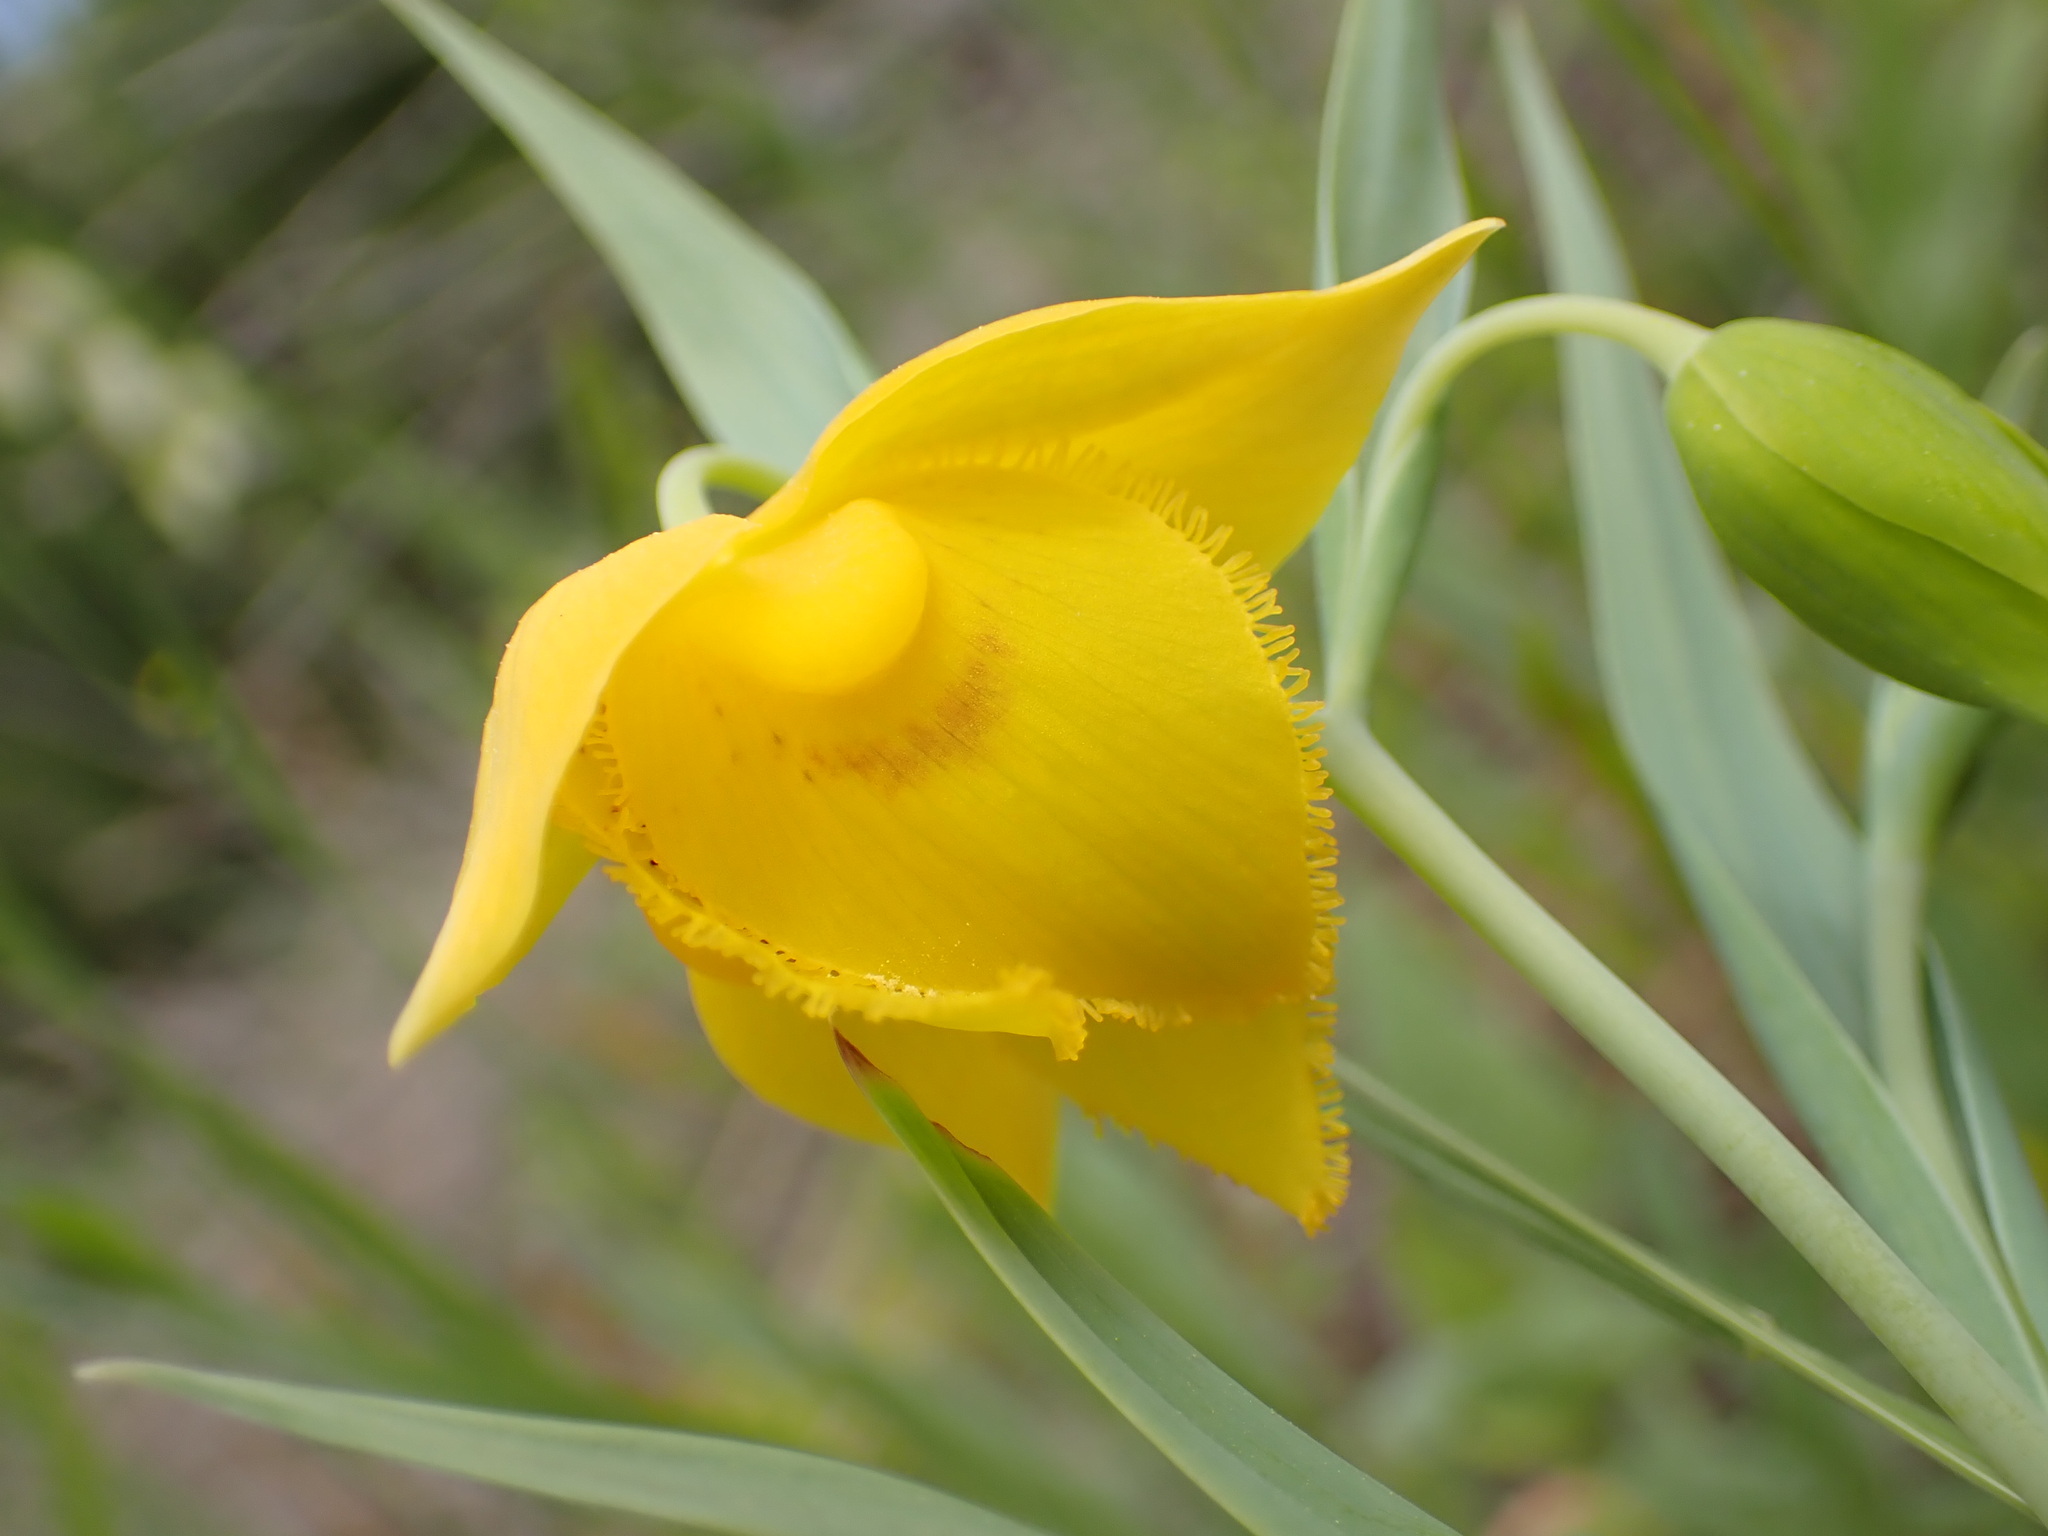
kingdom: Plantae
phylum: Tracheophyta
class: Liliopsida
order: Liliales
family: Liliaceae
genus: Calochortus
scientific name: Calochortus amabilis
